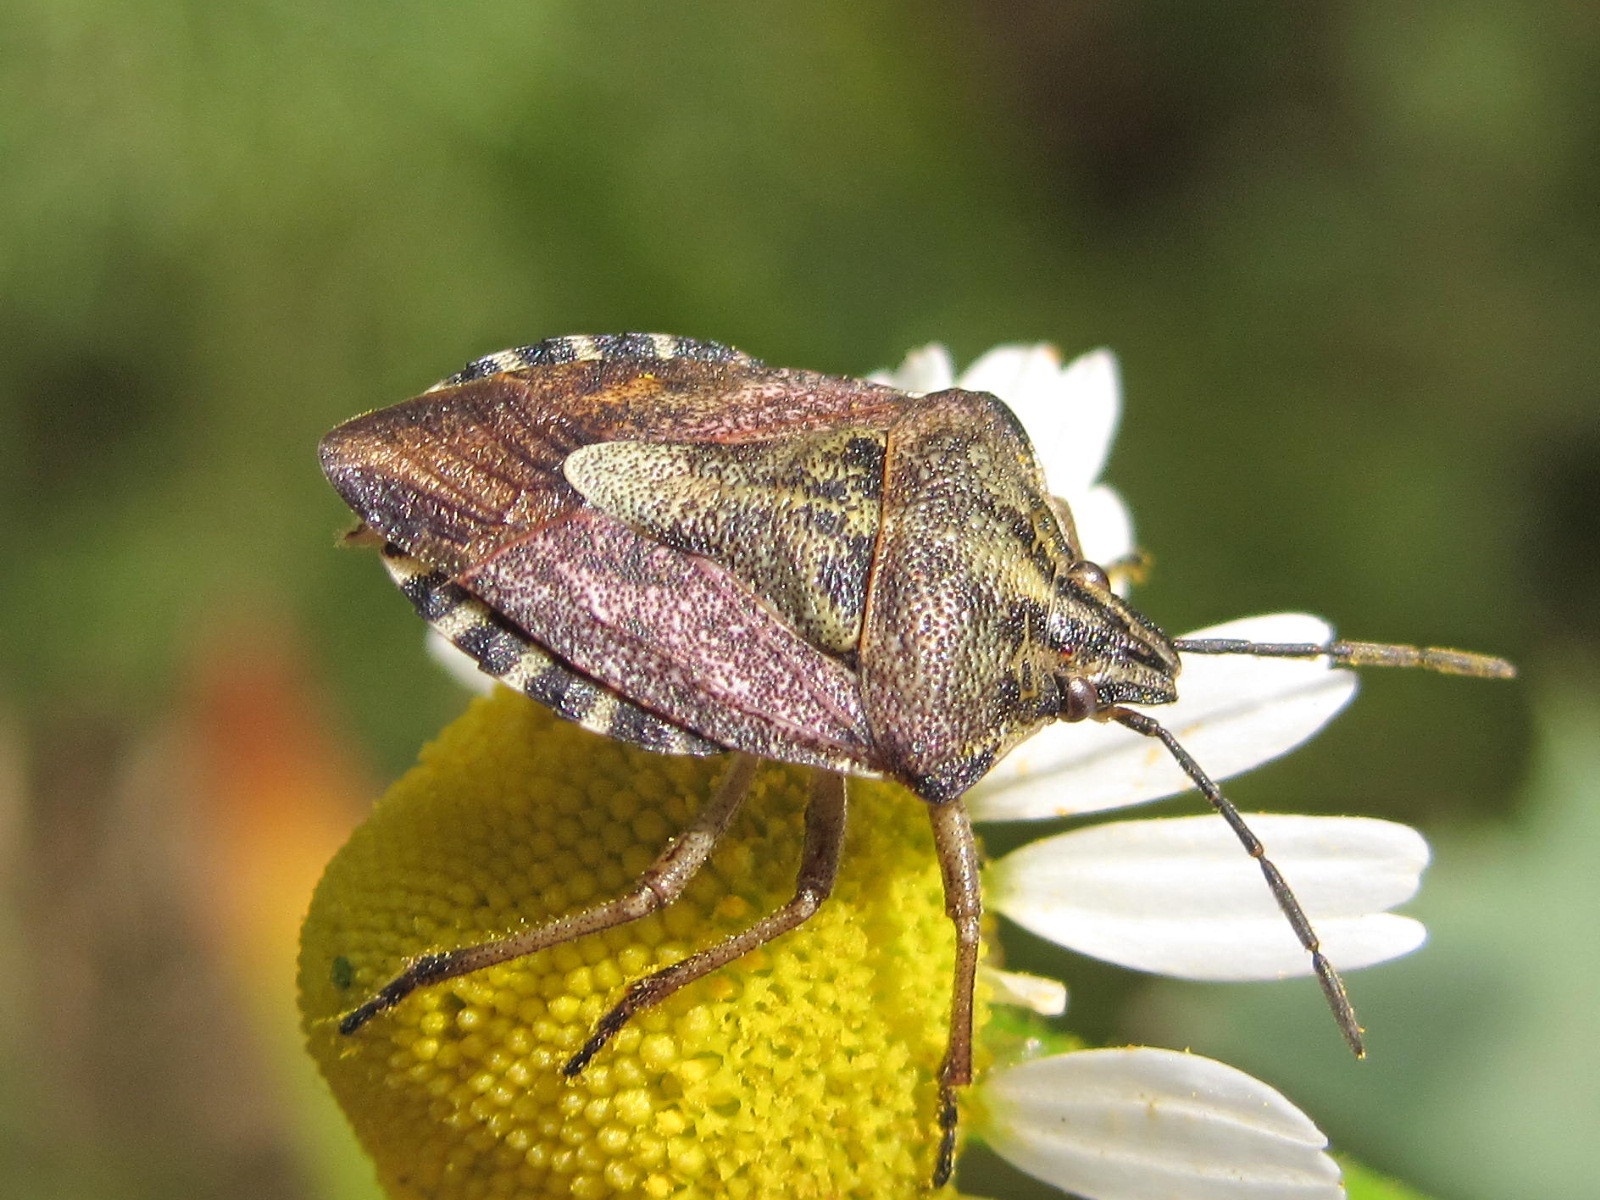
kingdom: Animalia
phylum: Arthropoda
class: Insecta
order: Hemiptera
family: Pentatomidae
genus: Carpocoris
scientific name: Carpocoris purpureipennis
